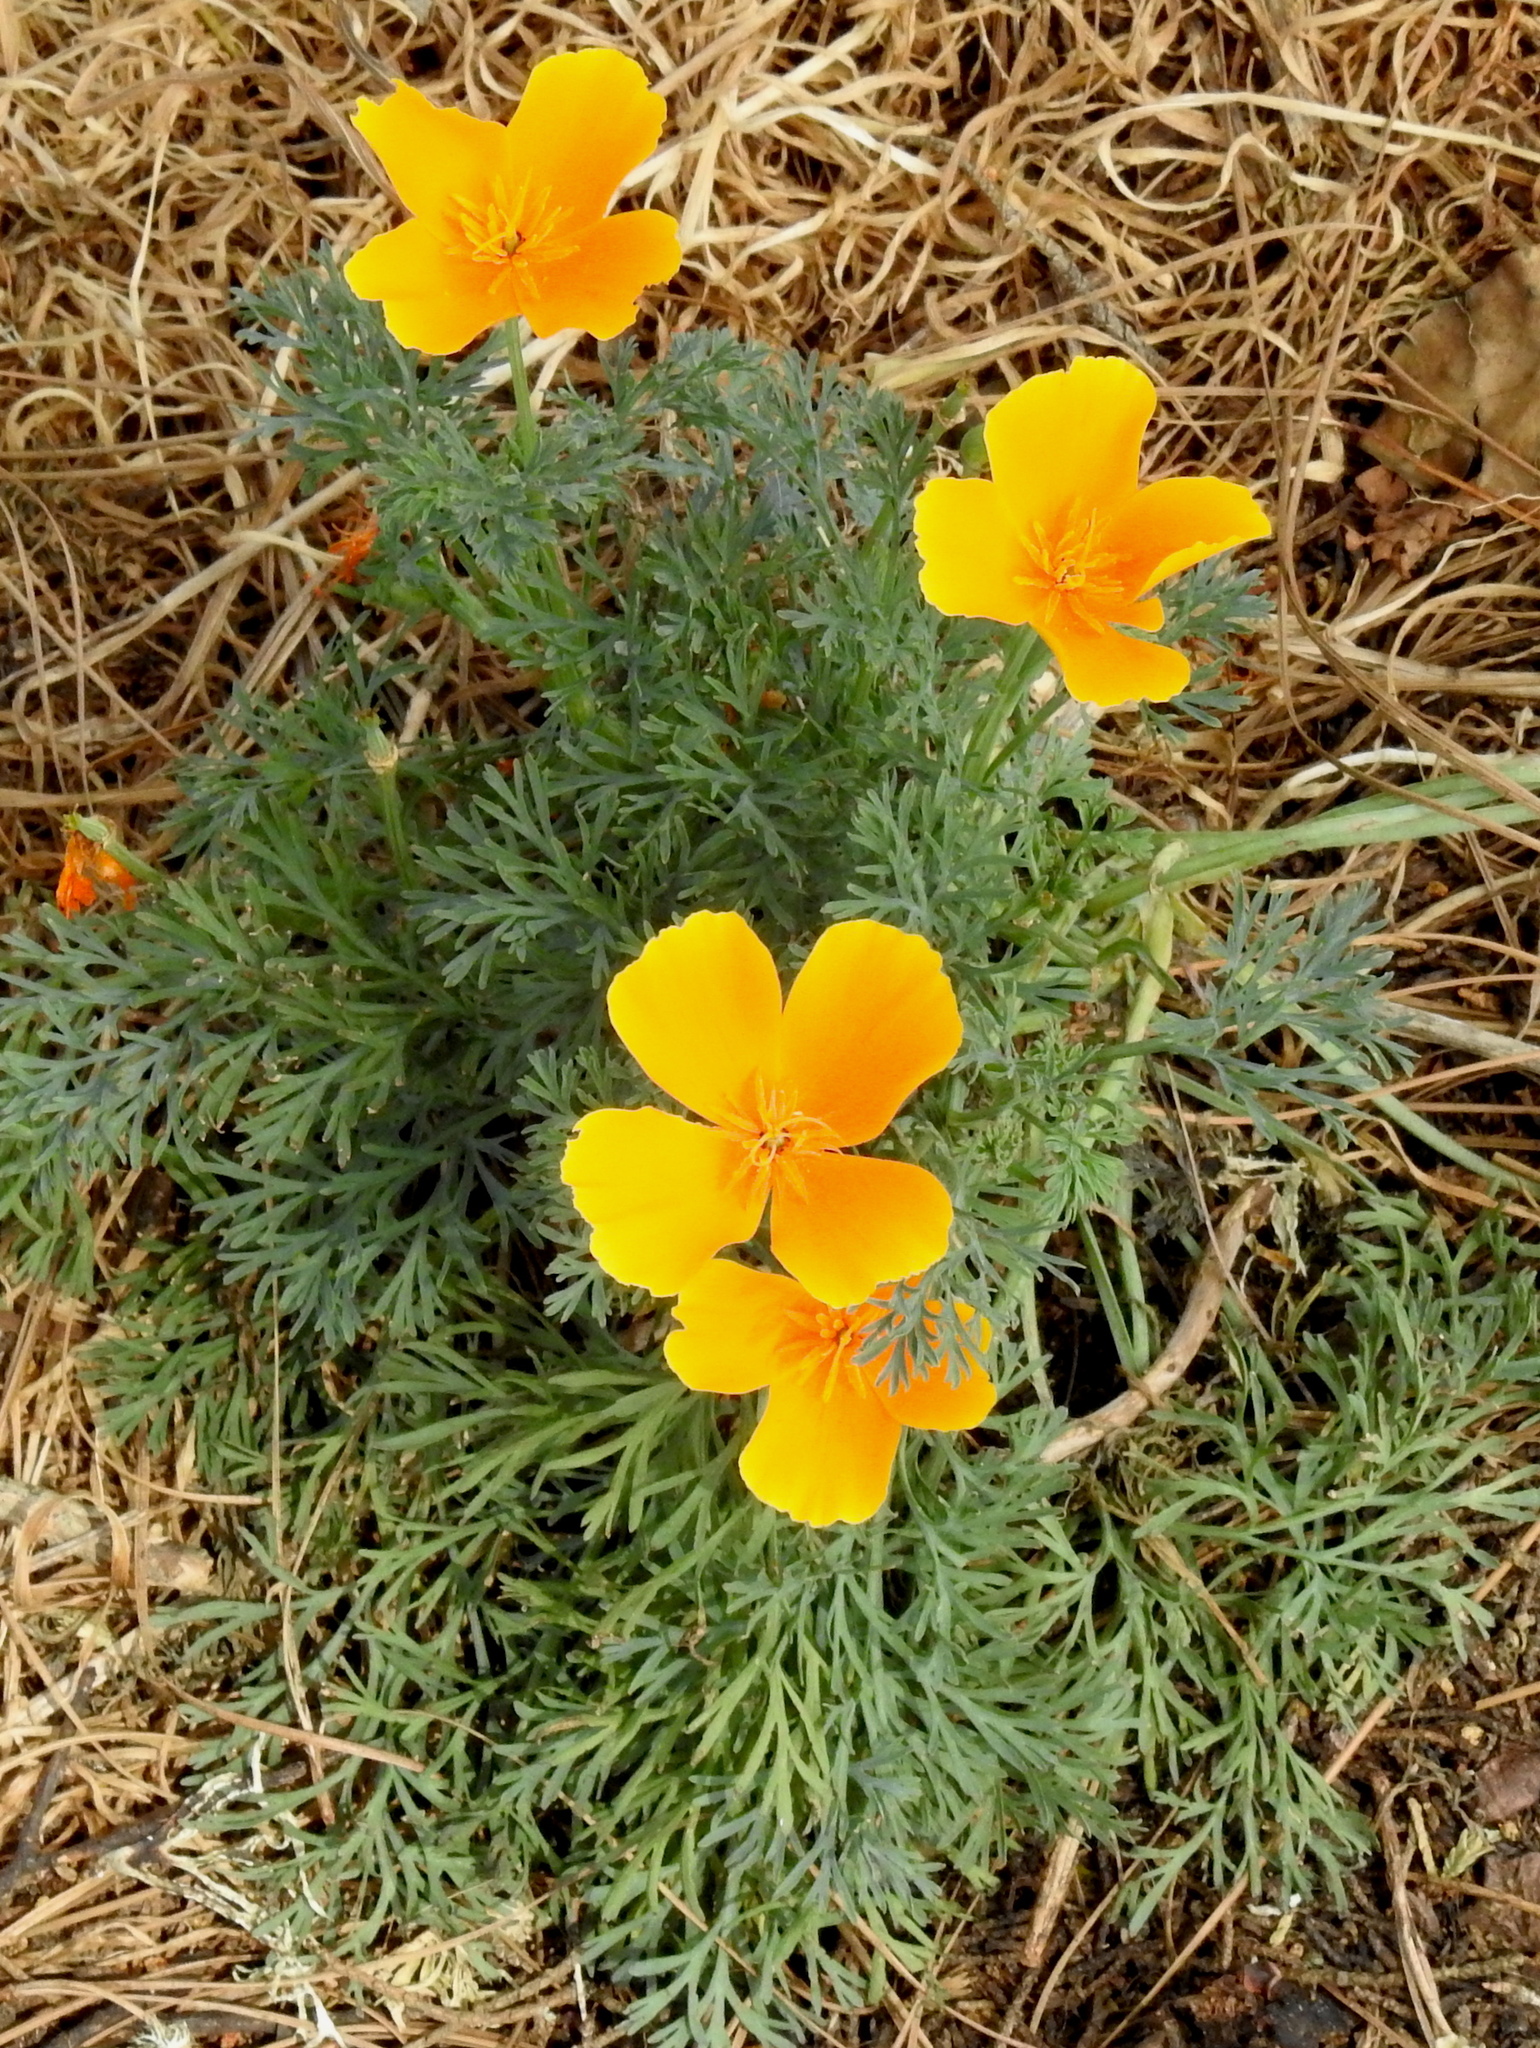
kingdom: Plantae
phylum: Tracheophyta
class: Magnoliopsida
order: Ranunculales
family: Papaveraceae
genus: Eschscholzia
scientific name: Eschscholzia californica
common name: California poppy
